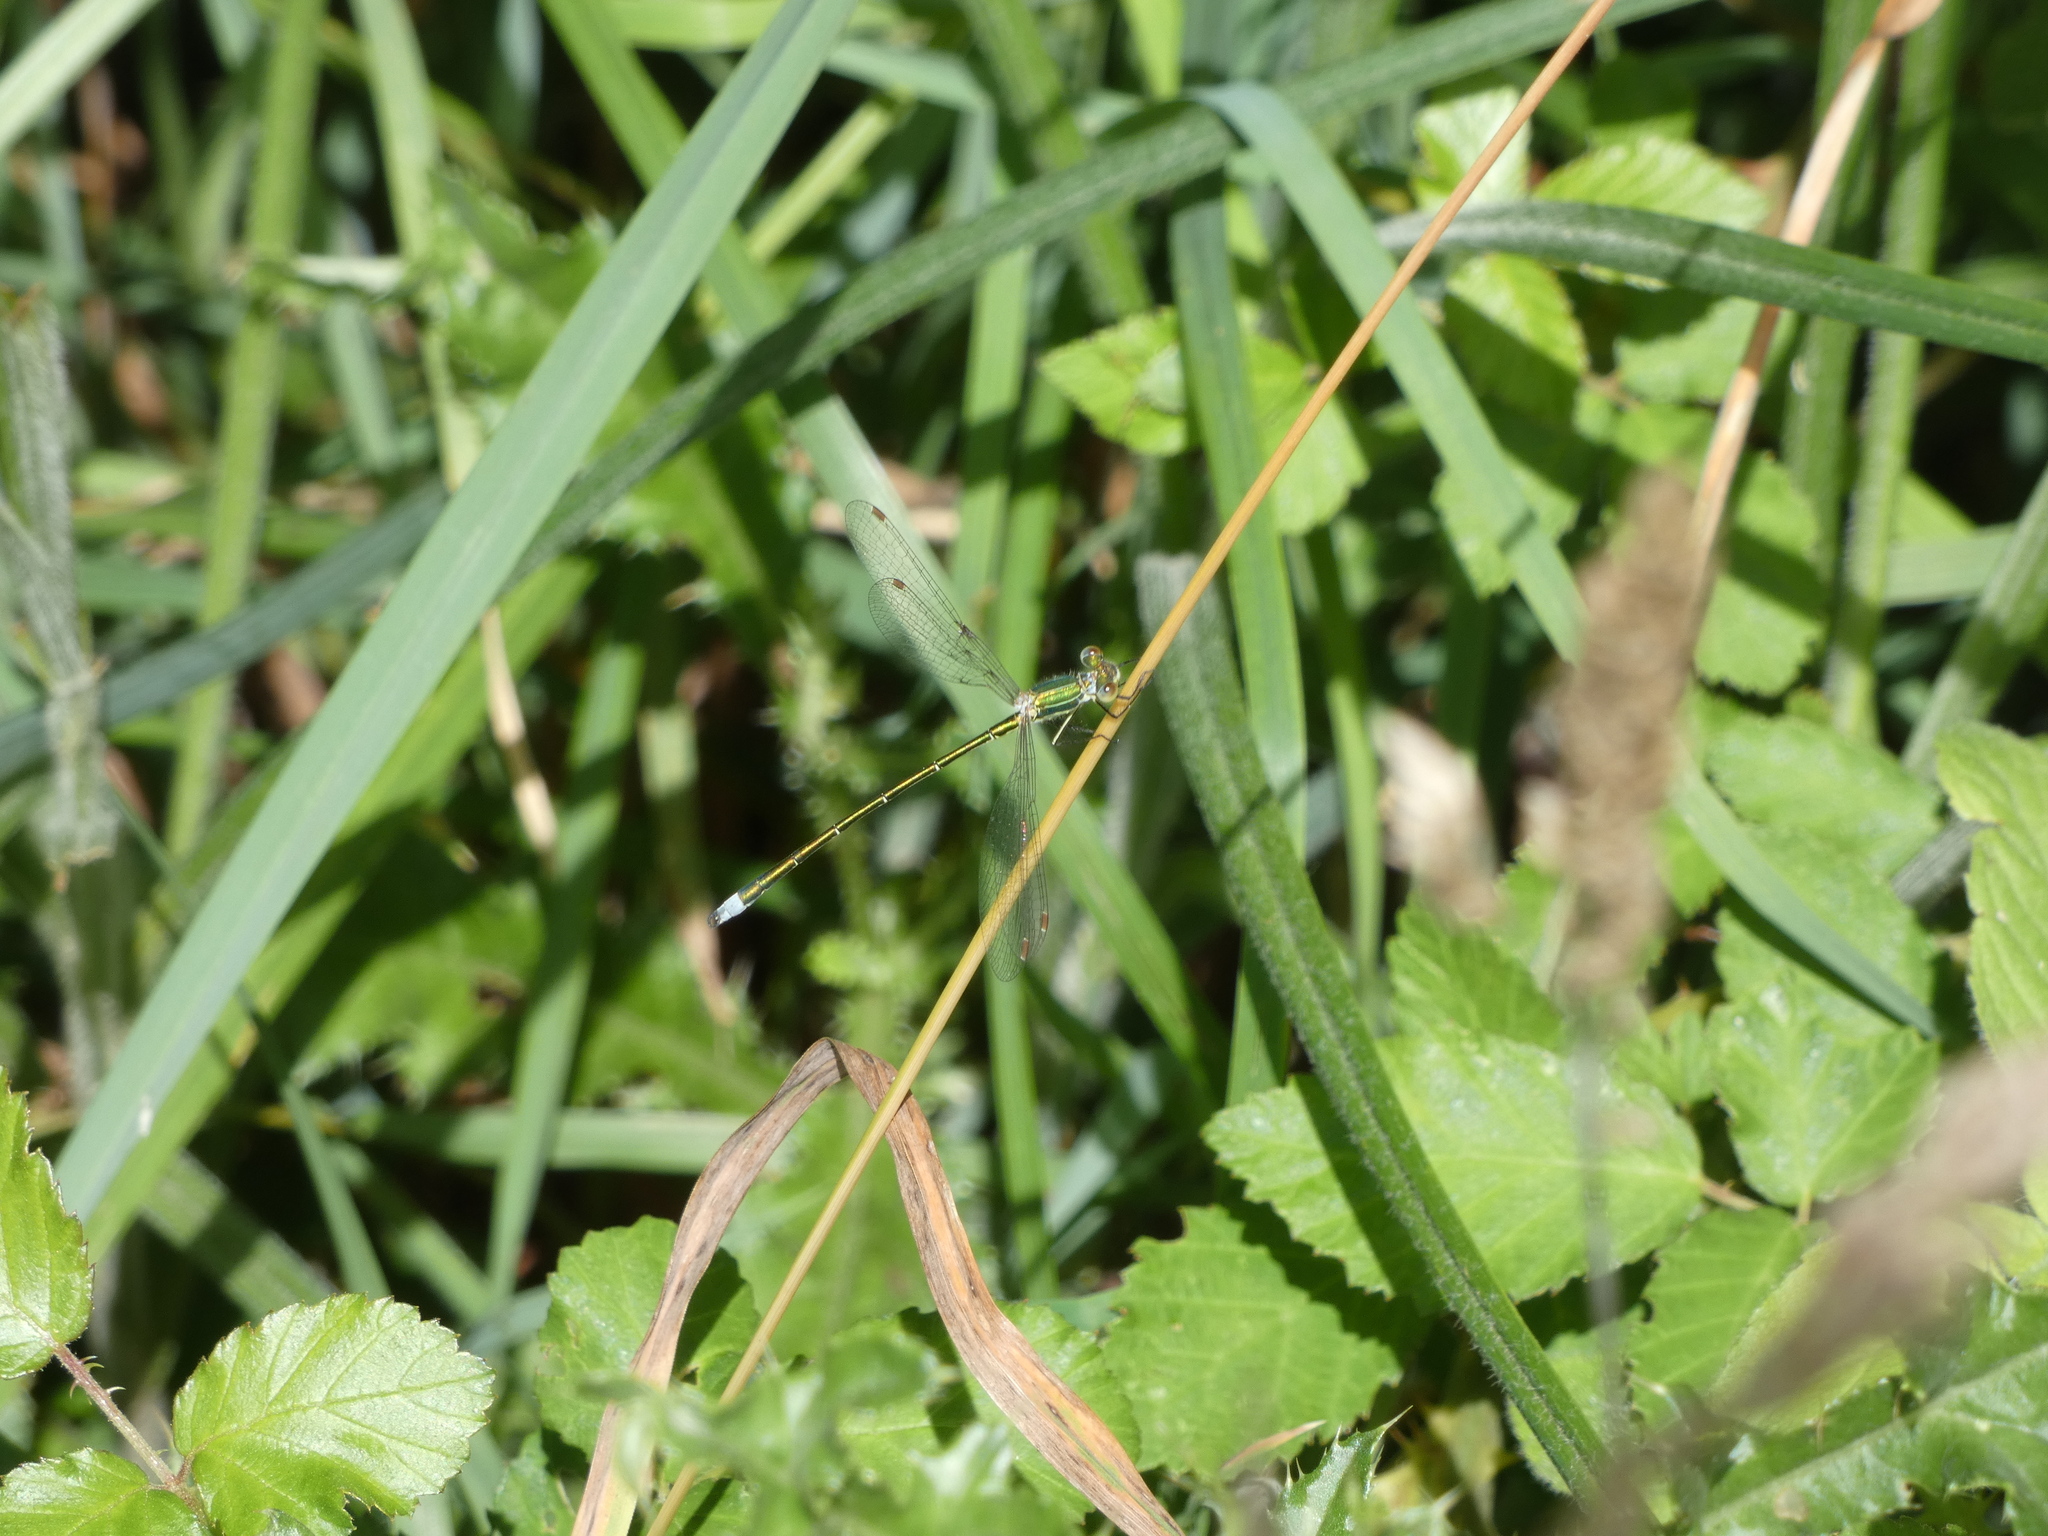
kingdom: Animalia
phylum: Arthropoda
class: Insecta
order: Odonata
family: Lestidae
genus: Lestes
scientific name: Lestes virens
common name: Small emerald spreadwing
